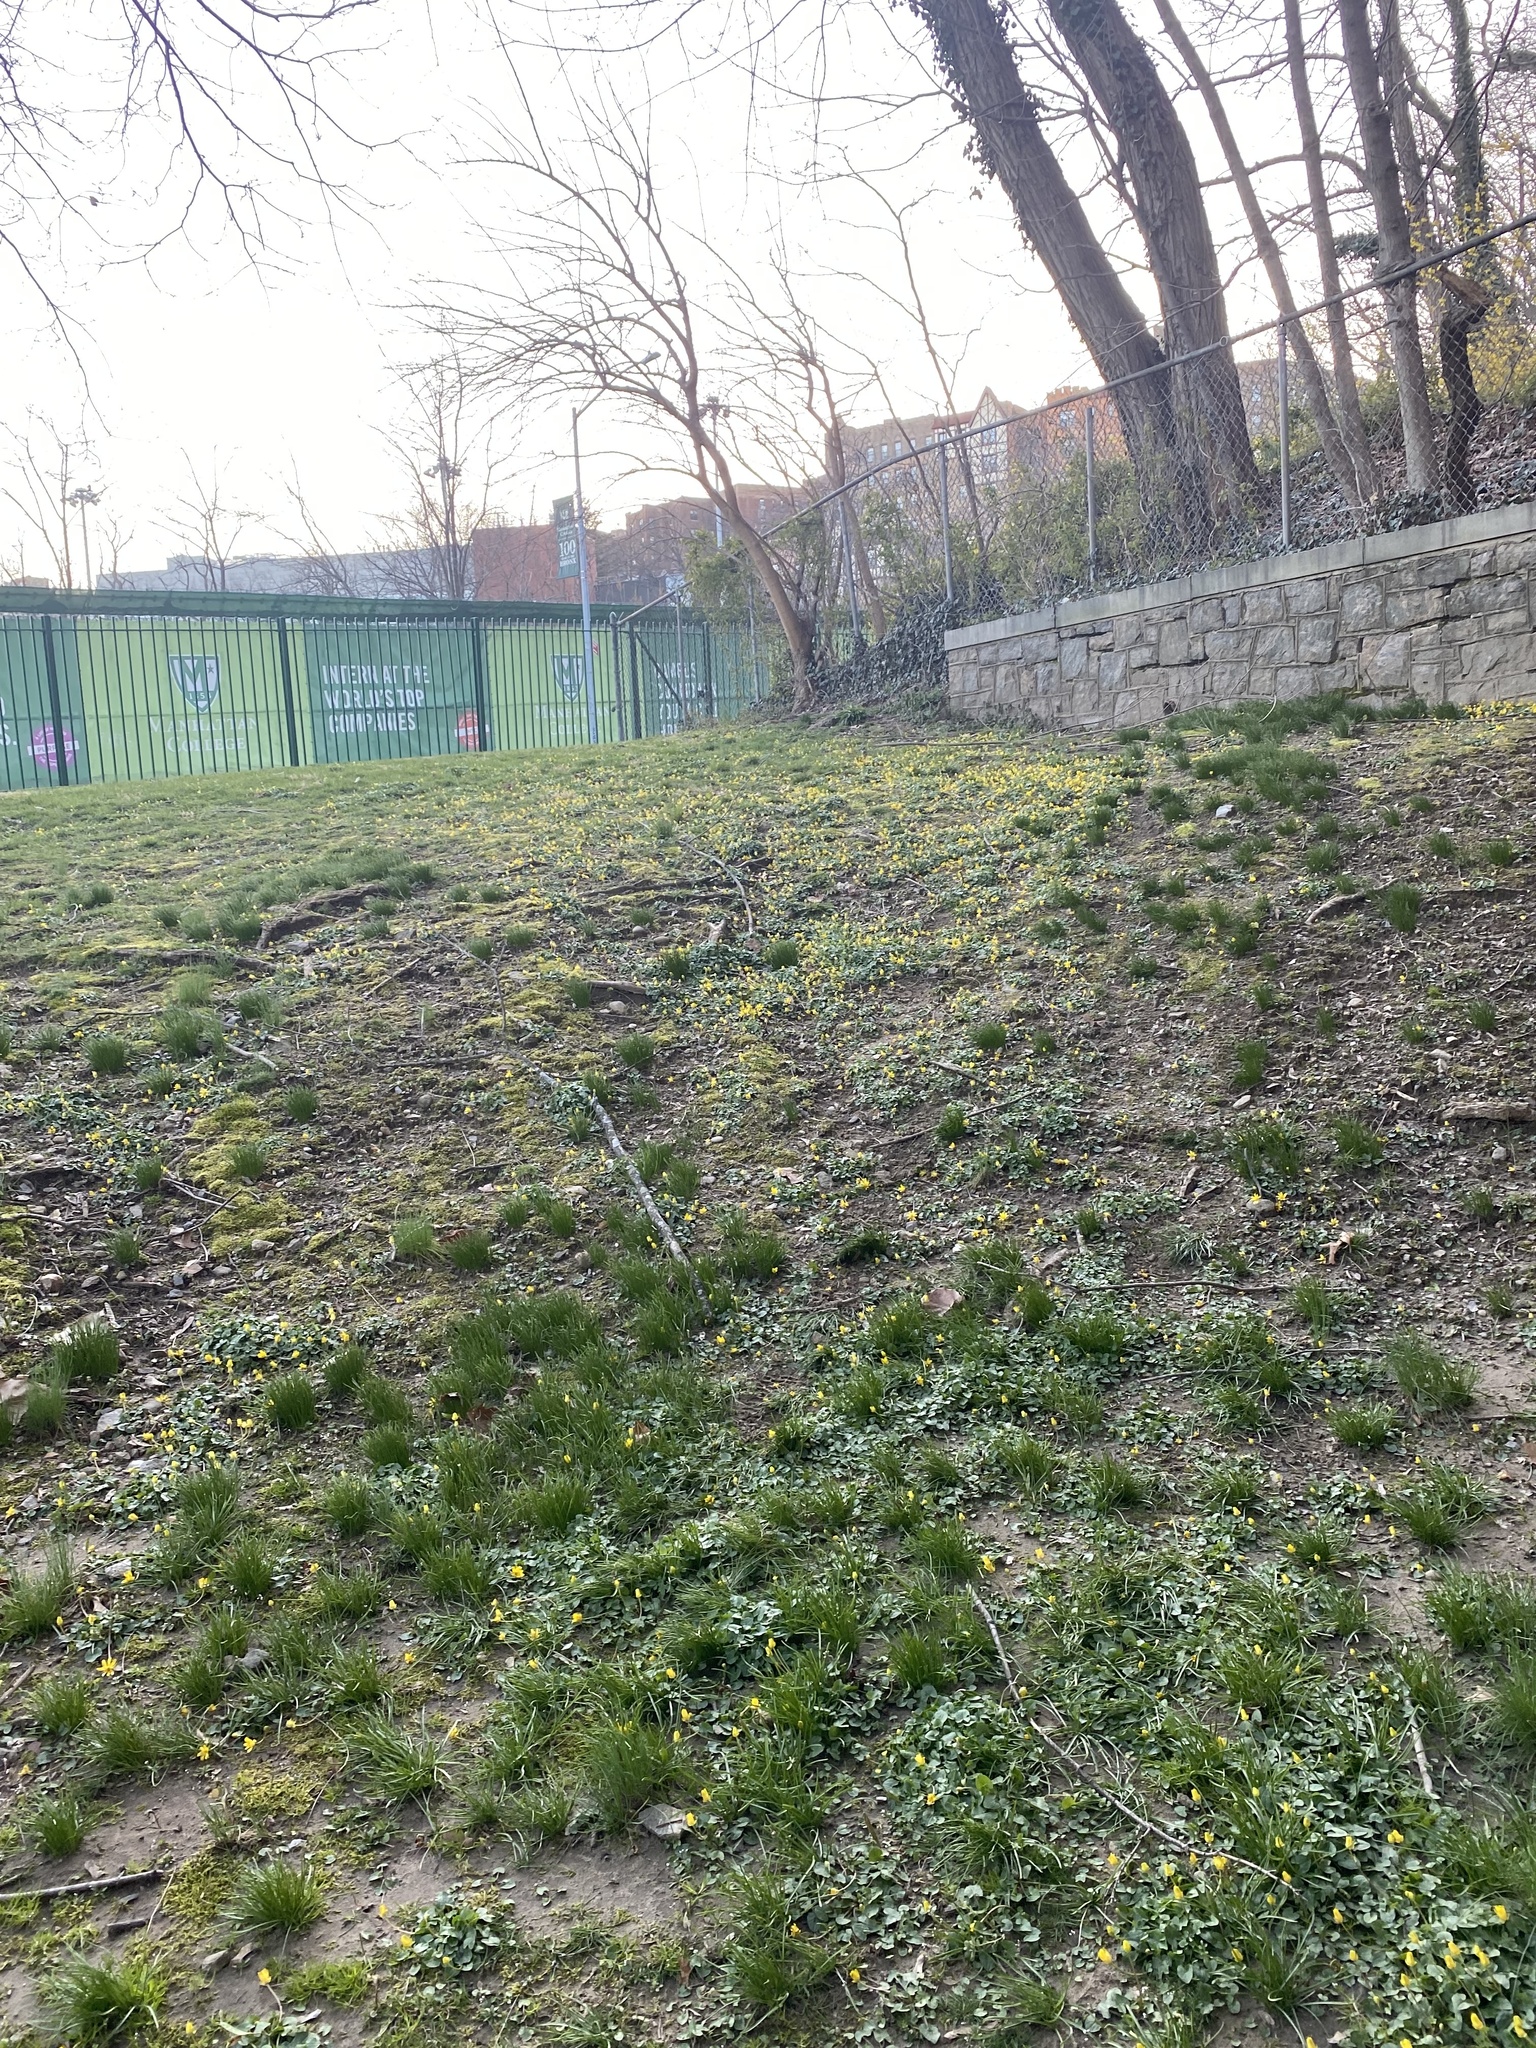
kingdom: Plantae
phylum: Tracheophyta
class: Magnoliopsida
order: Ranunculales
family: Ranunculaceae
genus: Ficaria
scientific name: Ficaria verna
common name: Lesser celandine
